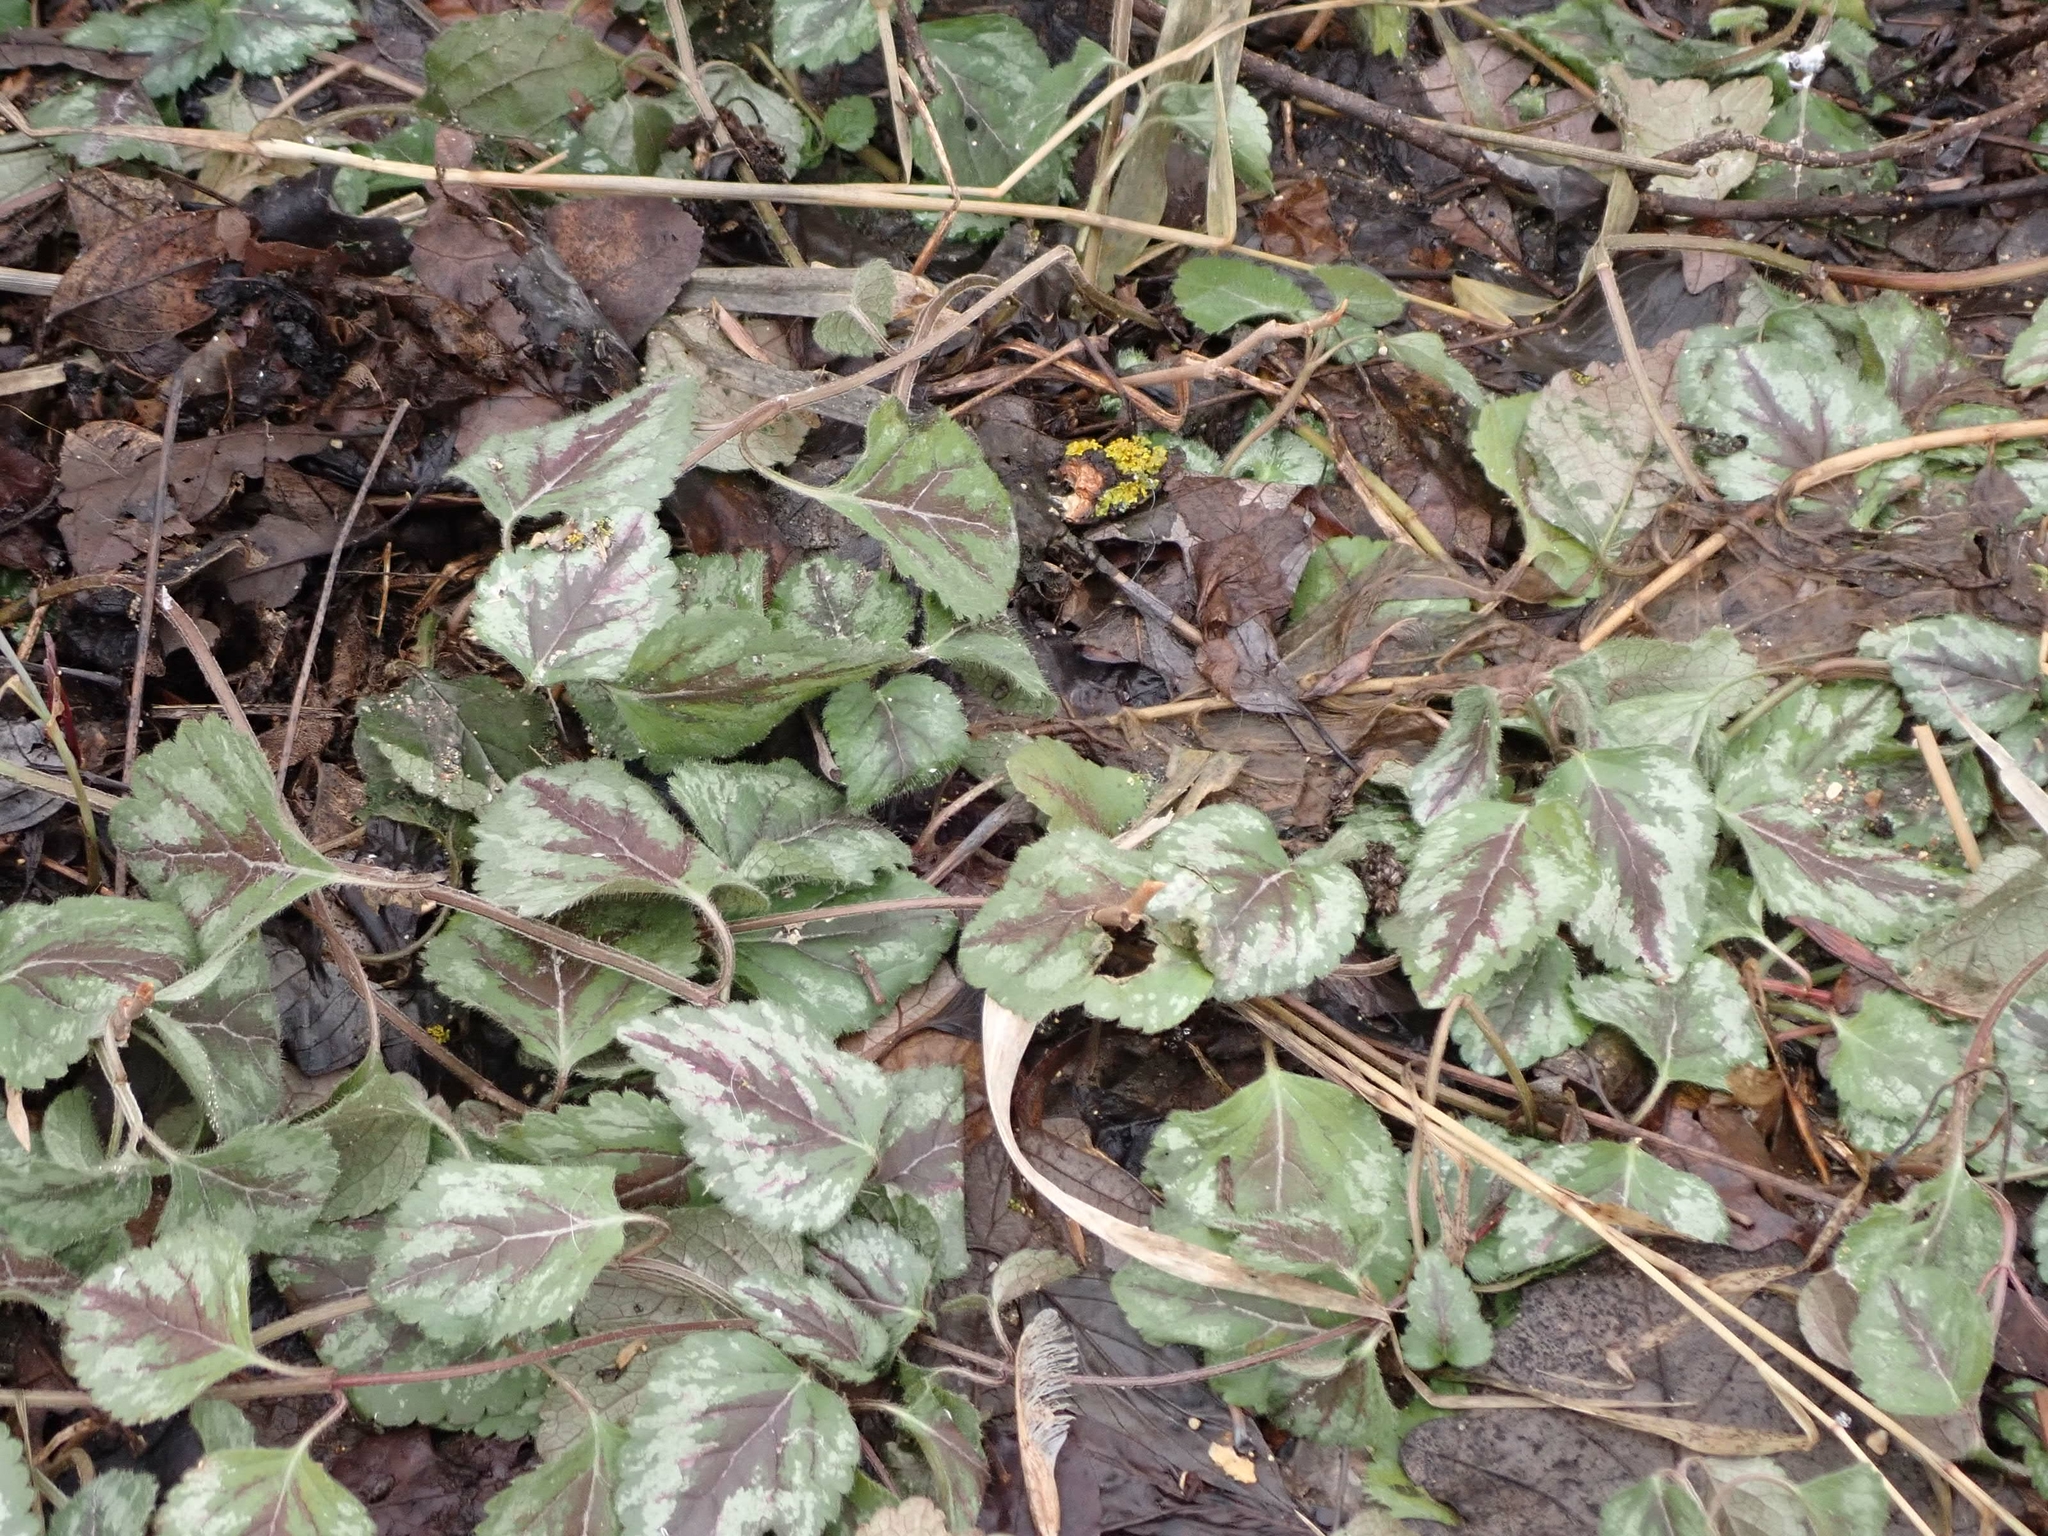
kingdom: Plantae
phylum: Tracheophyta
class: Magnoliopsida
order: Lamiales
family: Lamiaceae
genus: Lamium
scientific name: Lamium galeobdolon
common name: Yellow archangel
